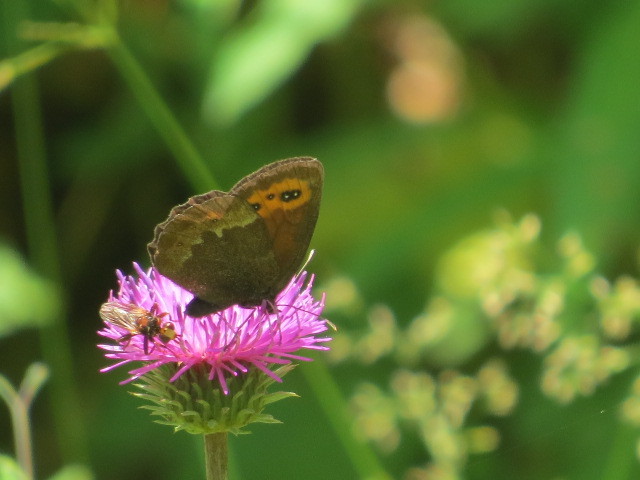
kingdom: Animalia
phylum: Arthropoda
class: Insecta
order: Lepidoptera
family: Nymphalidae
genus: Erebia
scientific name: Erebia euryale
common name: Large ringlet
